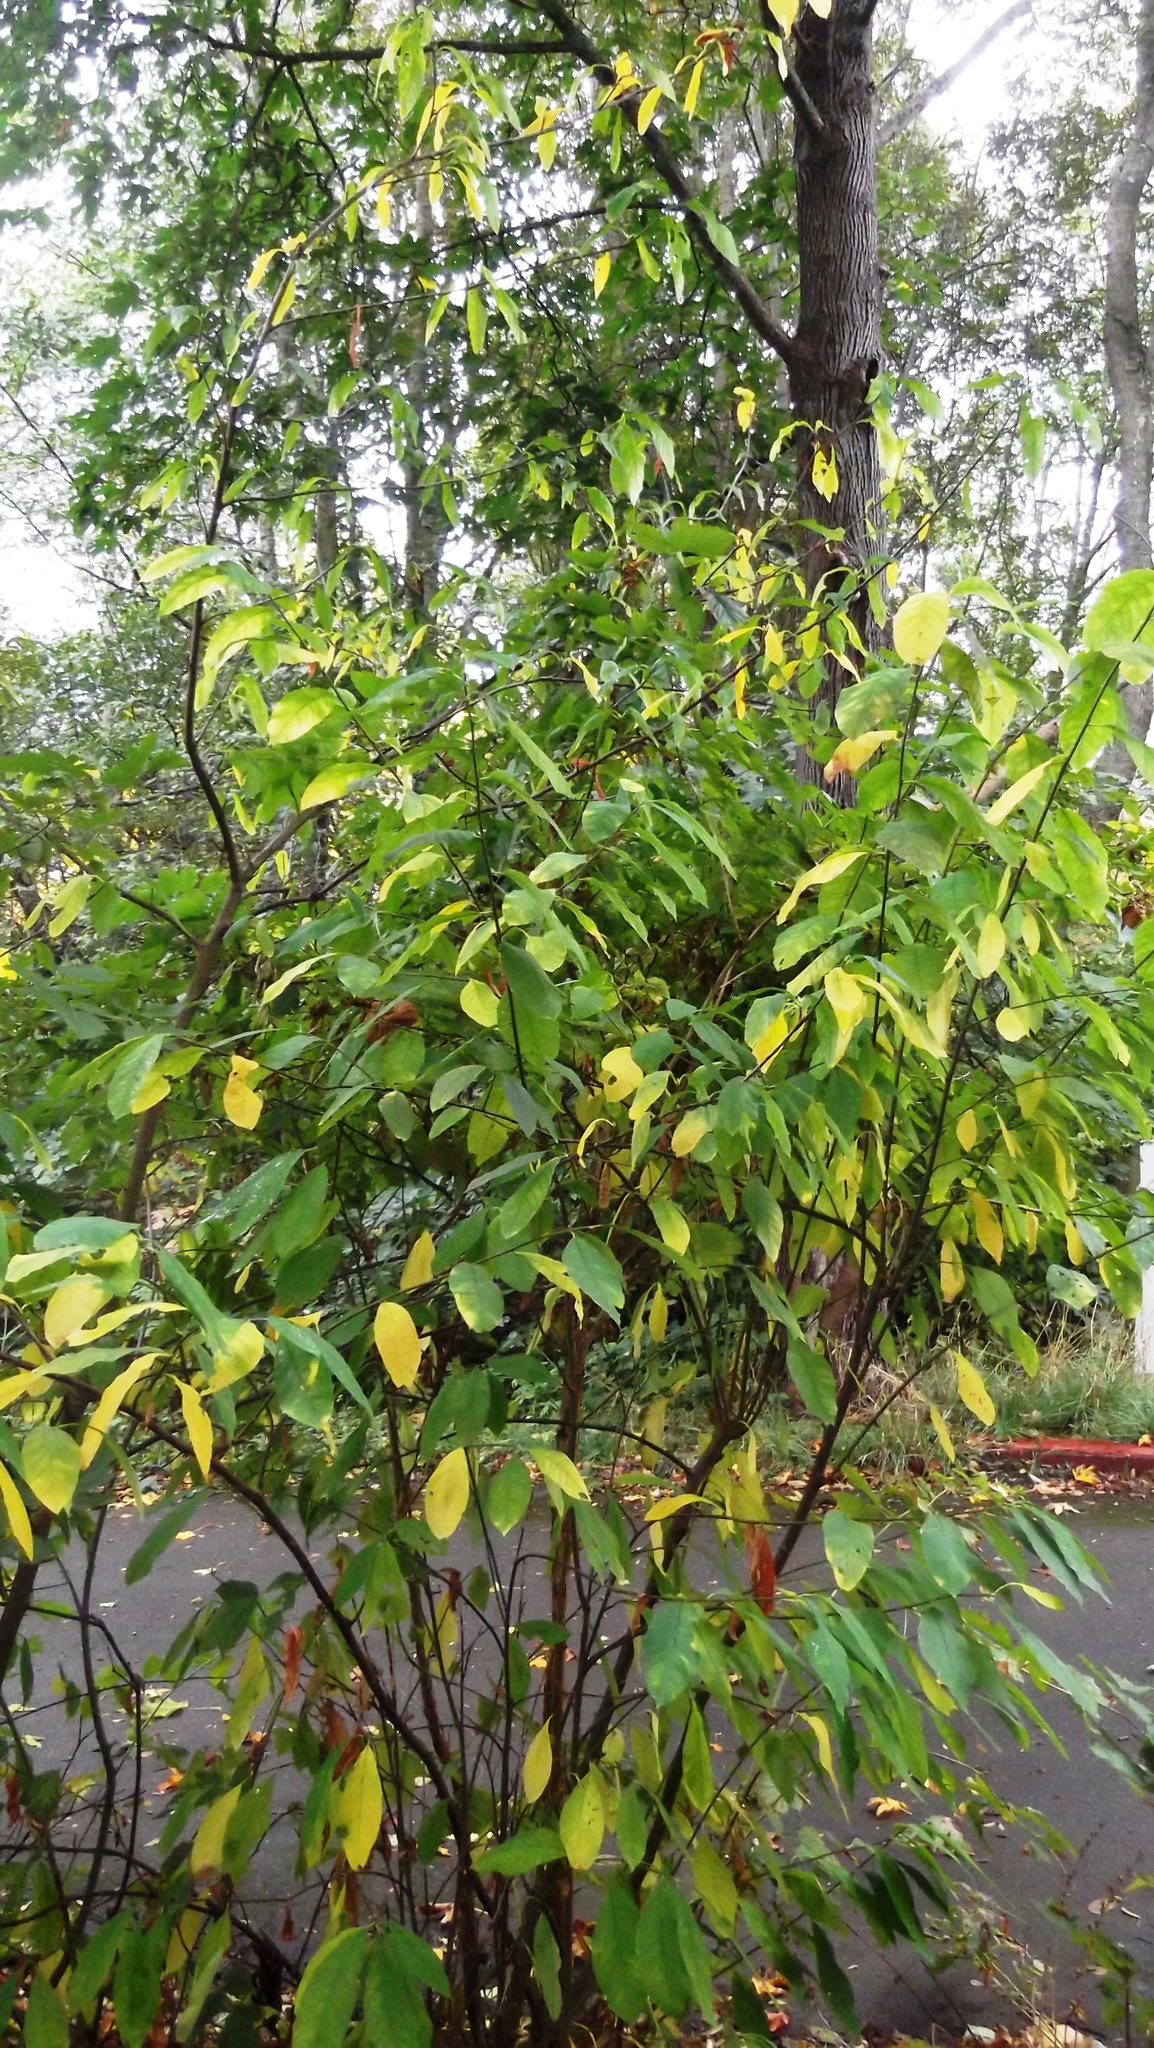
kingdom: Plantae
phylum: Tracheophyta
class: Magnoliopsida
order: Rosales
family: Rosaceae
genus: Oemleria
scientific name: Oemleria cerasiformis
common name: Osoberry
